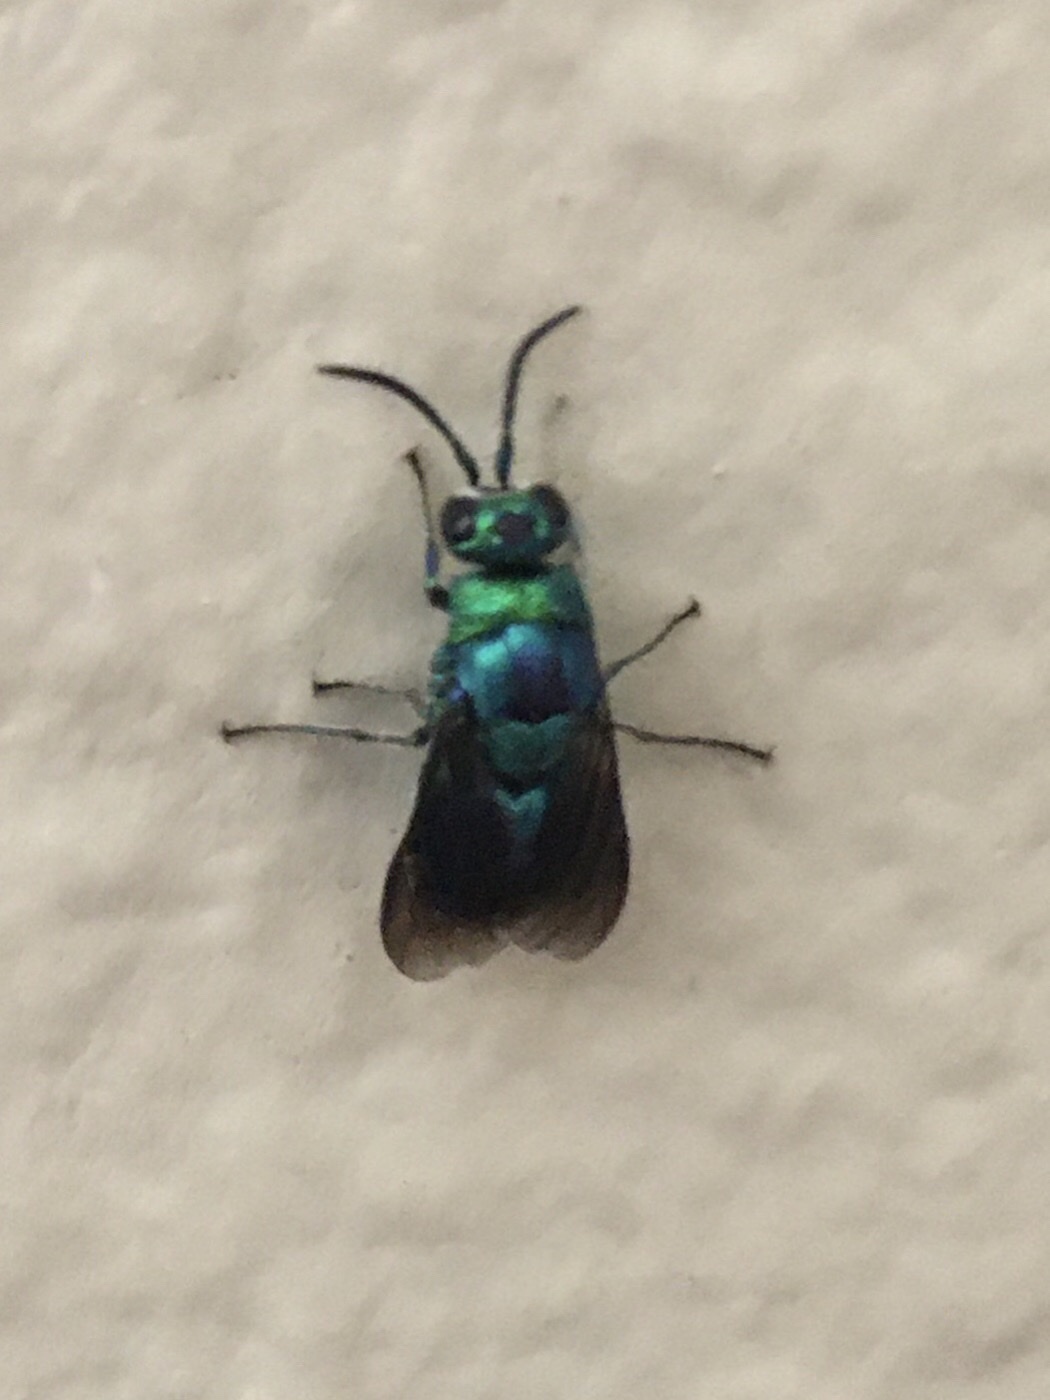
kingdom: Animalia
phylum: Arthropoda
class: Insecta
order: Hymenoptera
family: Chrysididae
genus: Chrysis
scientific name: Chrysis angolensis
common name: Cuckoo wasp
